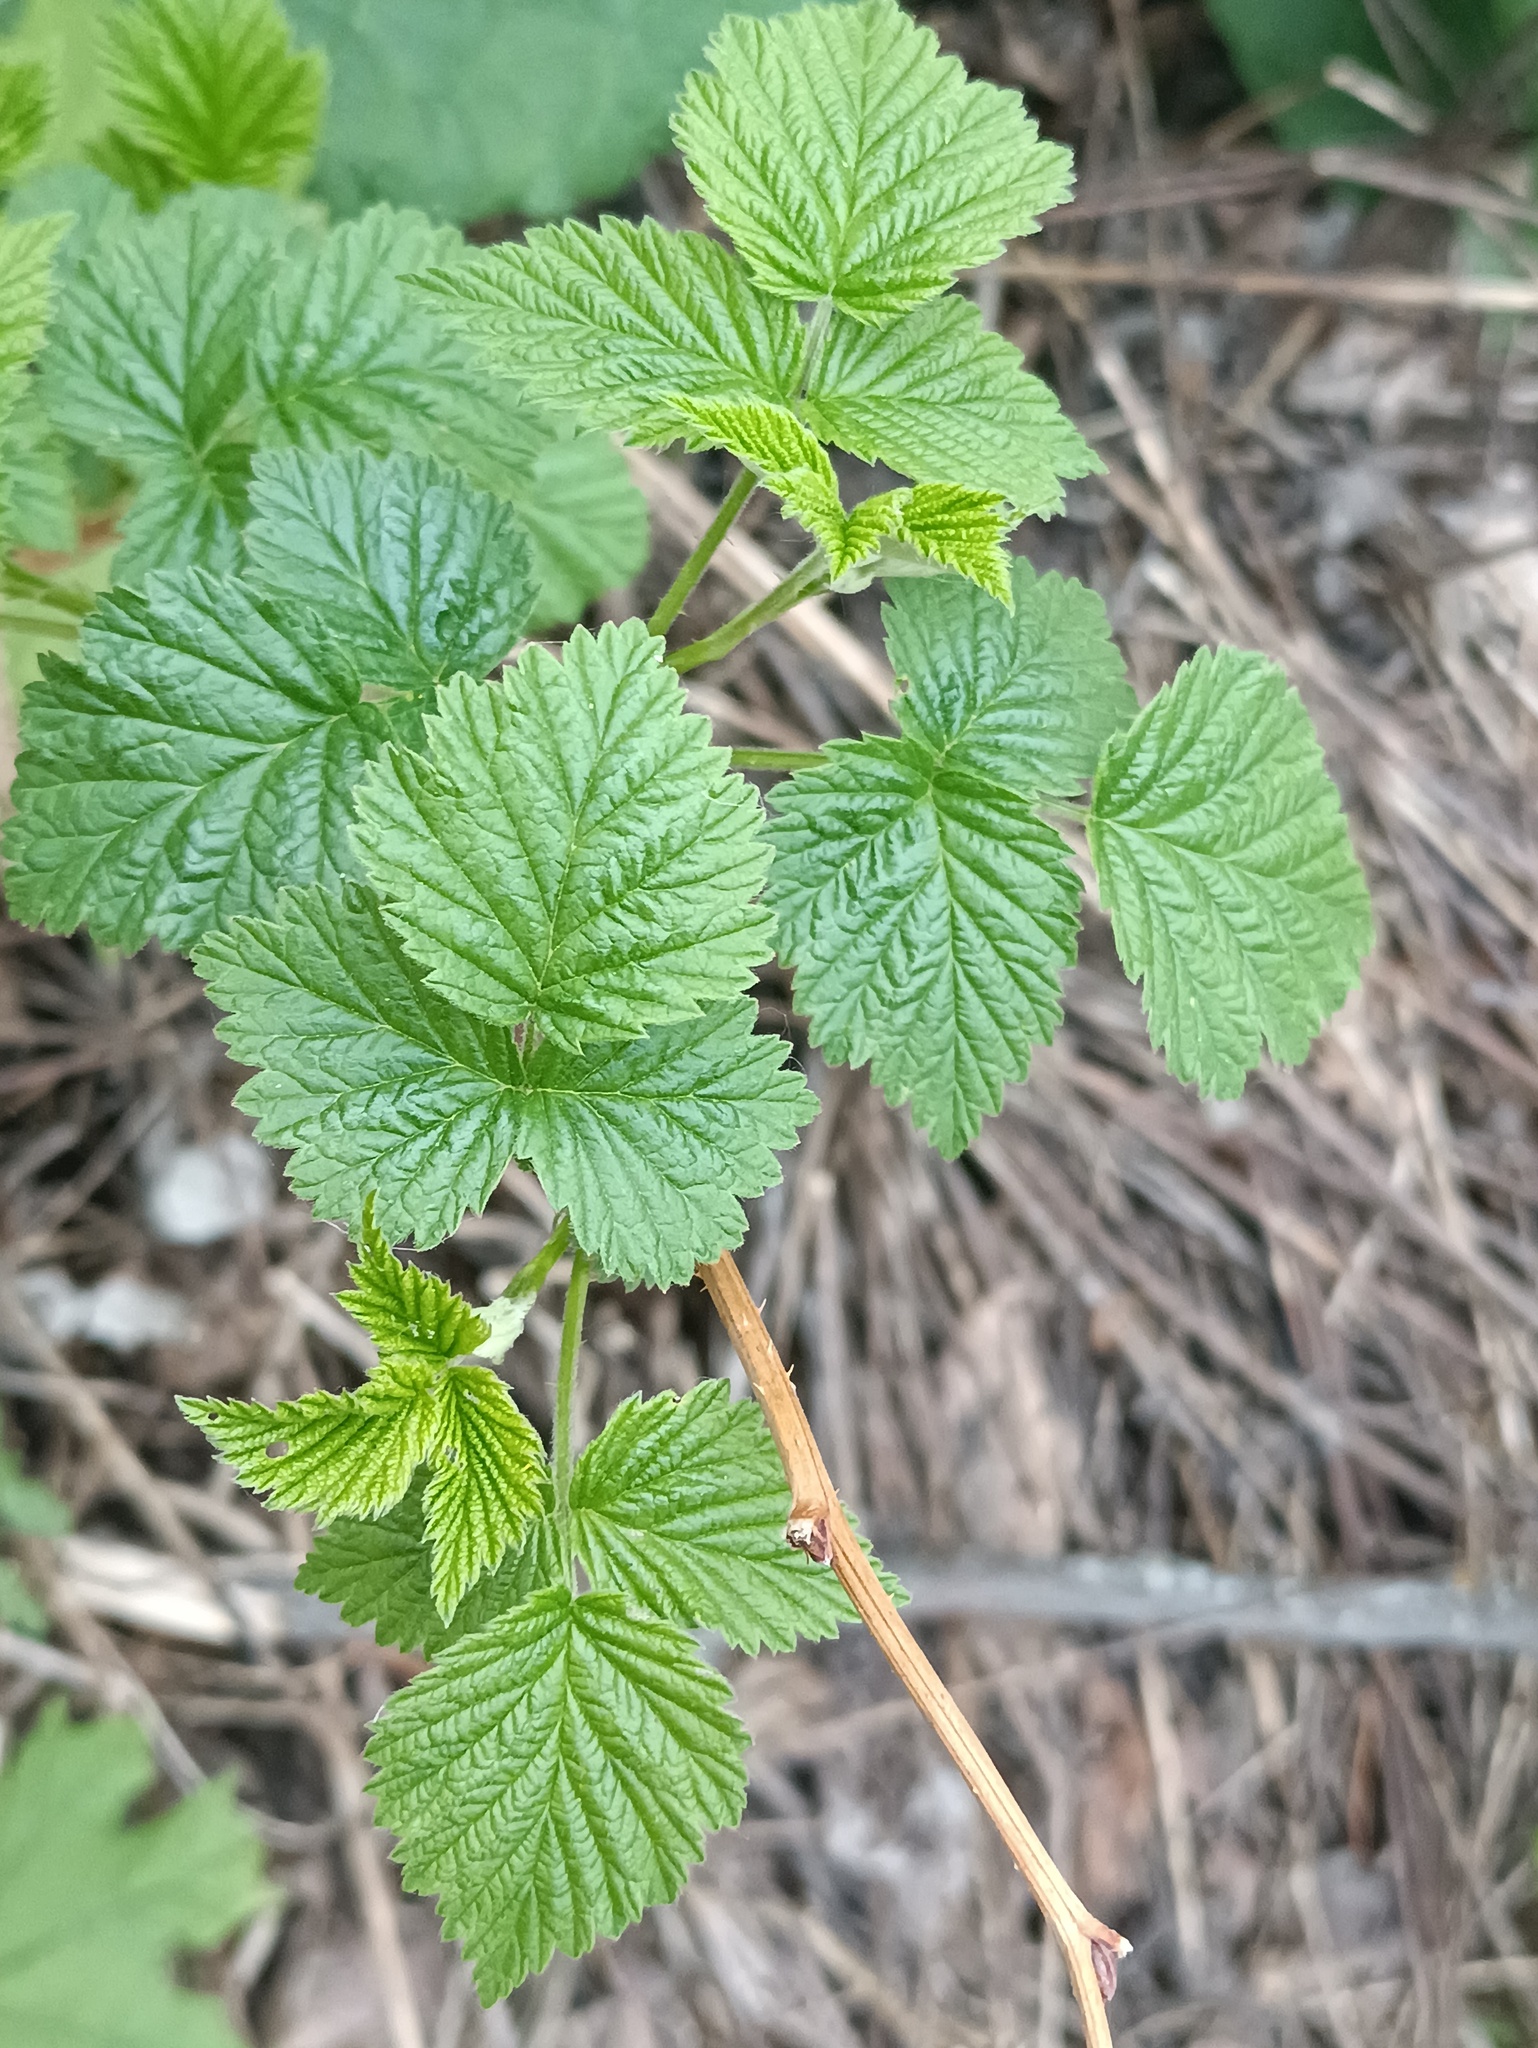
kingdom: Plantae
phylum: Tracheophyta
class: Magnoliopsida
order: Rosales
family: Rosaceae
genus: Rubus
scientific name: Rubus idaeus
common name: Raspberry
